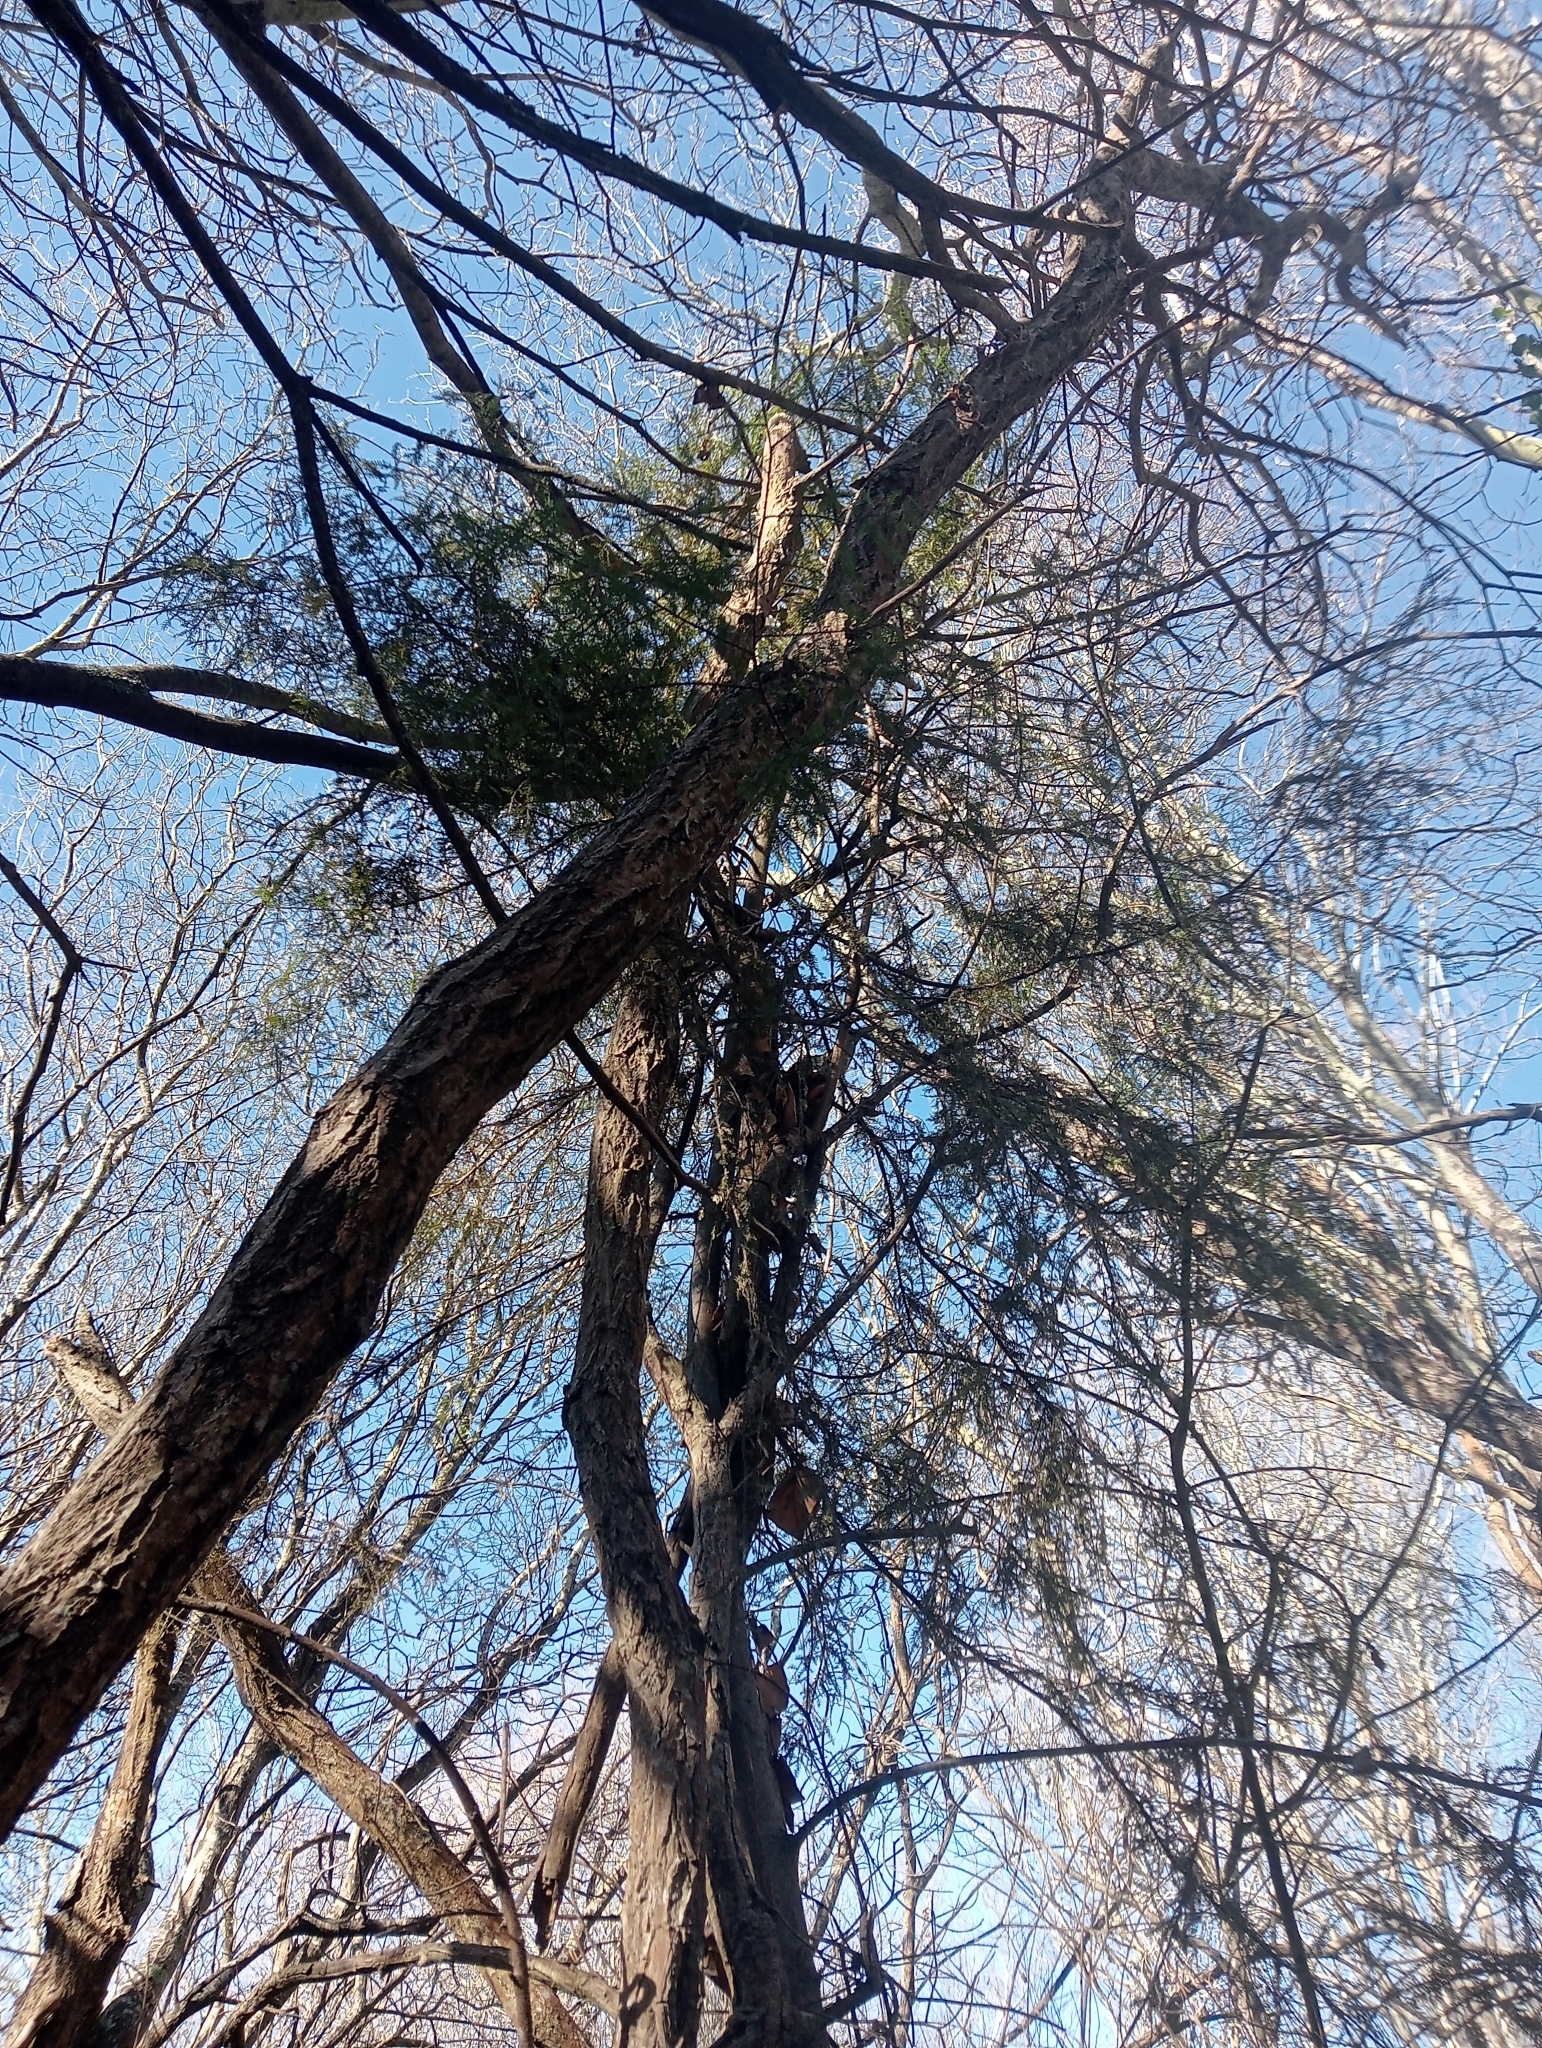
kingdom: Plantae
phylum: Tracheophyta
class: Pinopsida
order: Pinales
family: Podocarpaceae
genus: Dacrycarpus
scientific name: Dacrycarpus dacrydioides
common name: White pine
